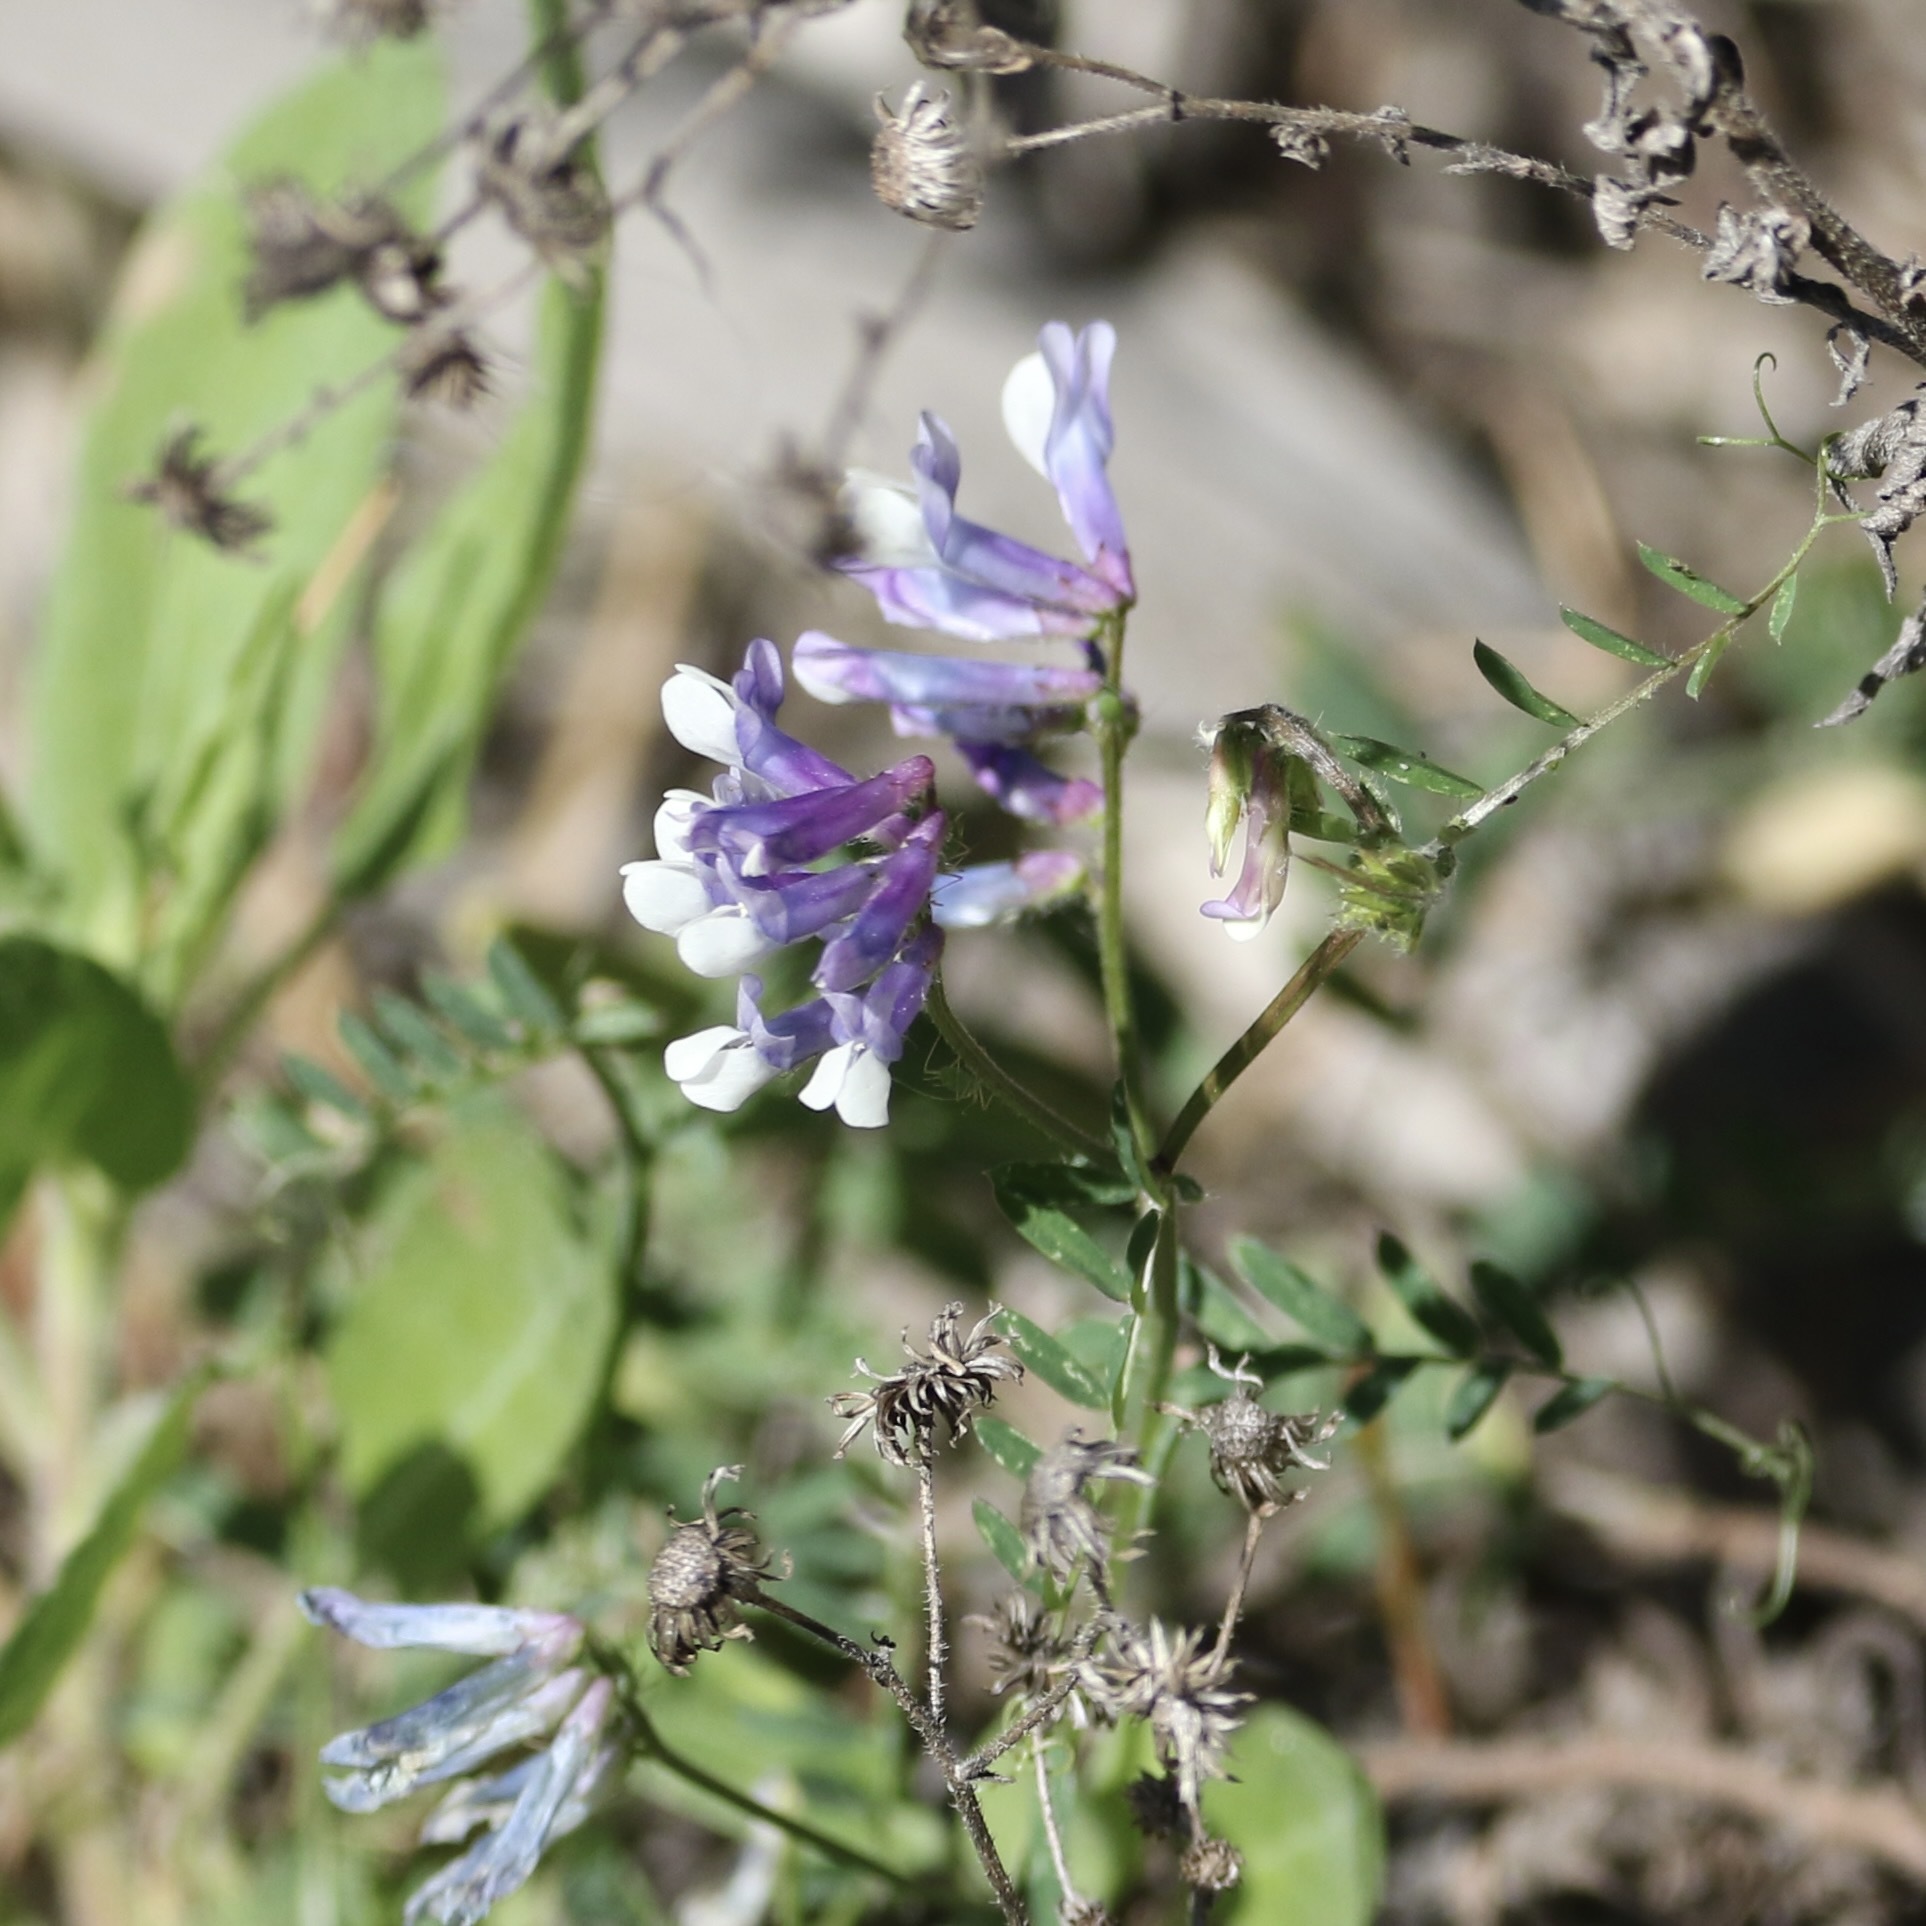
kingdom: Plantae
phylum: Tracheophyta
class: Magnoliopsida
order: Fabales
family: Fabaceae
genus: Vicia
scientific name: Vicia villosa
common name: Fodder vetch
